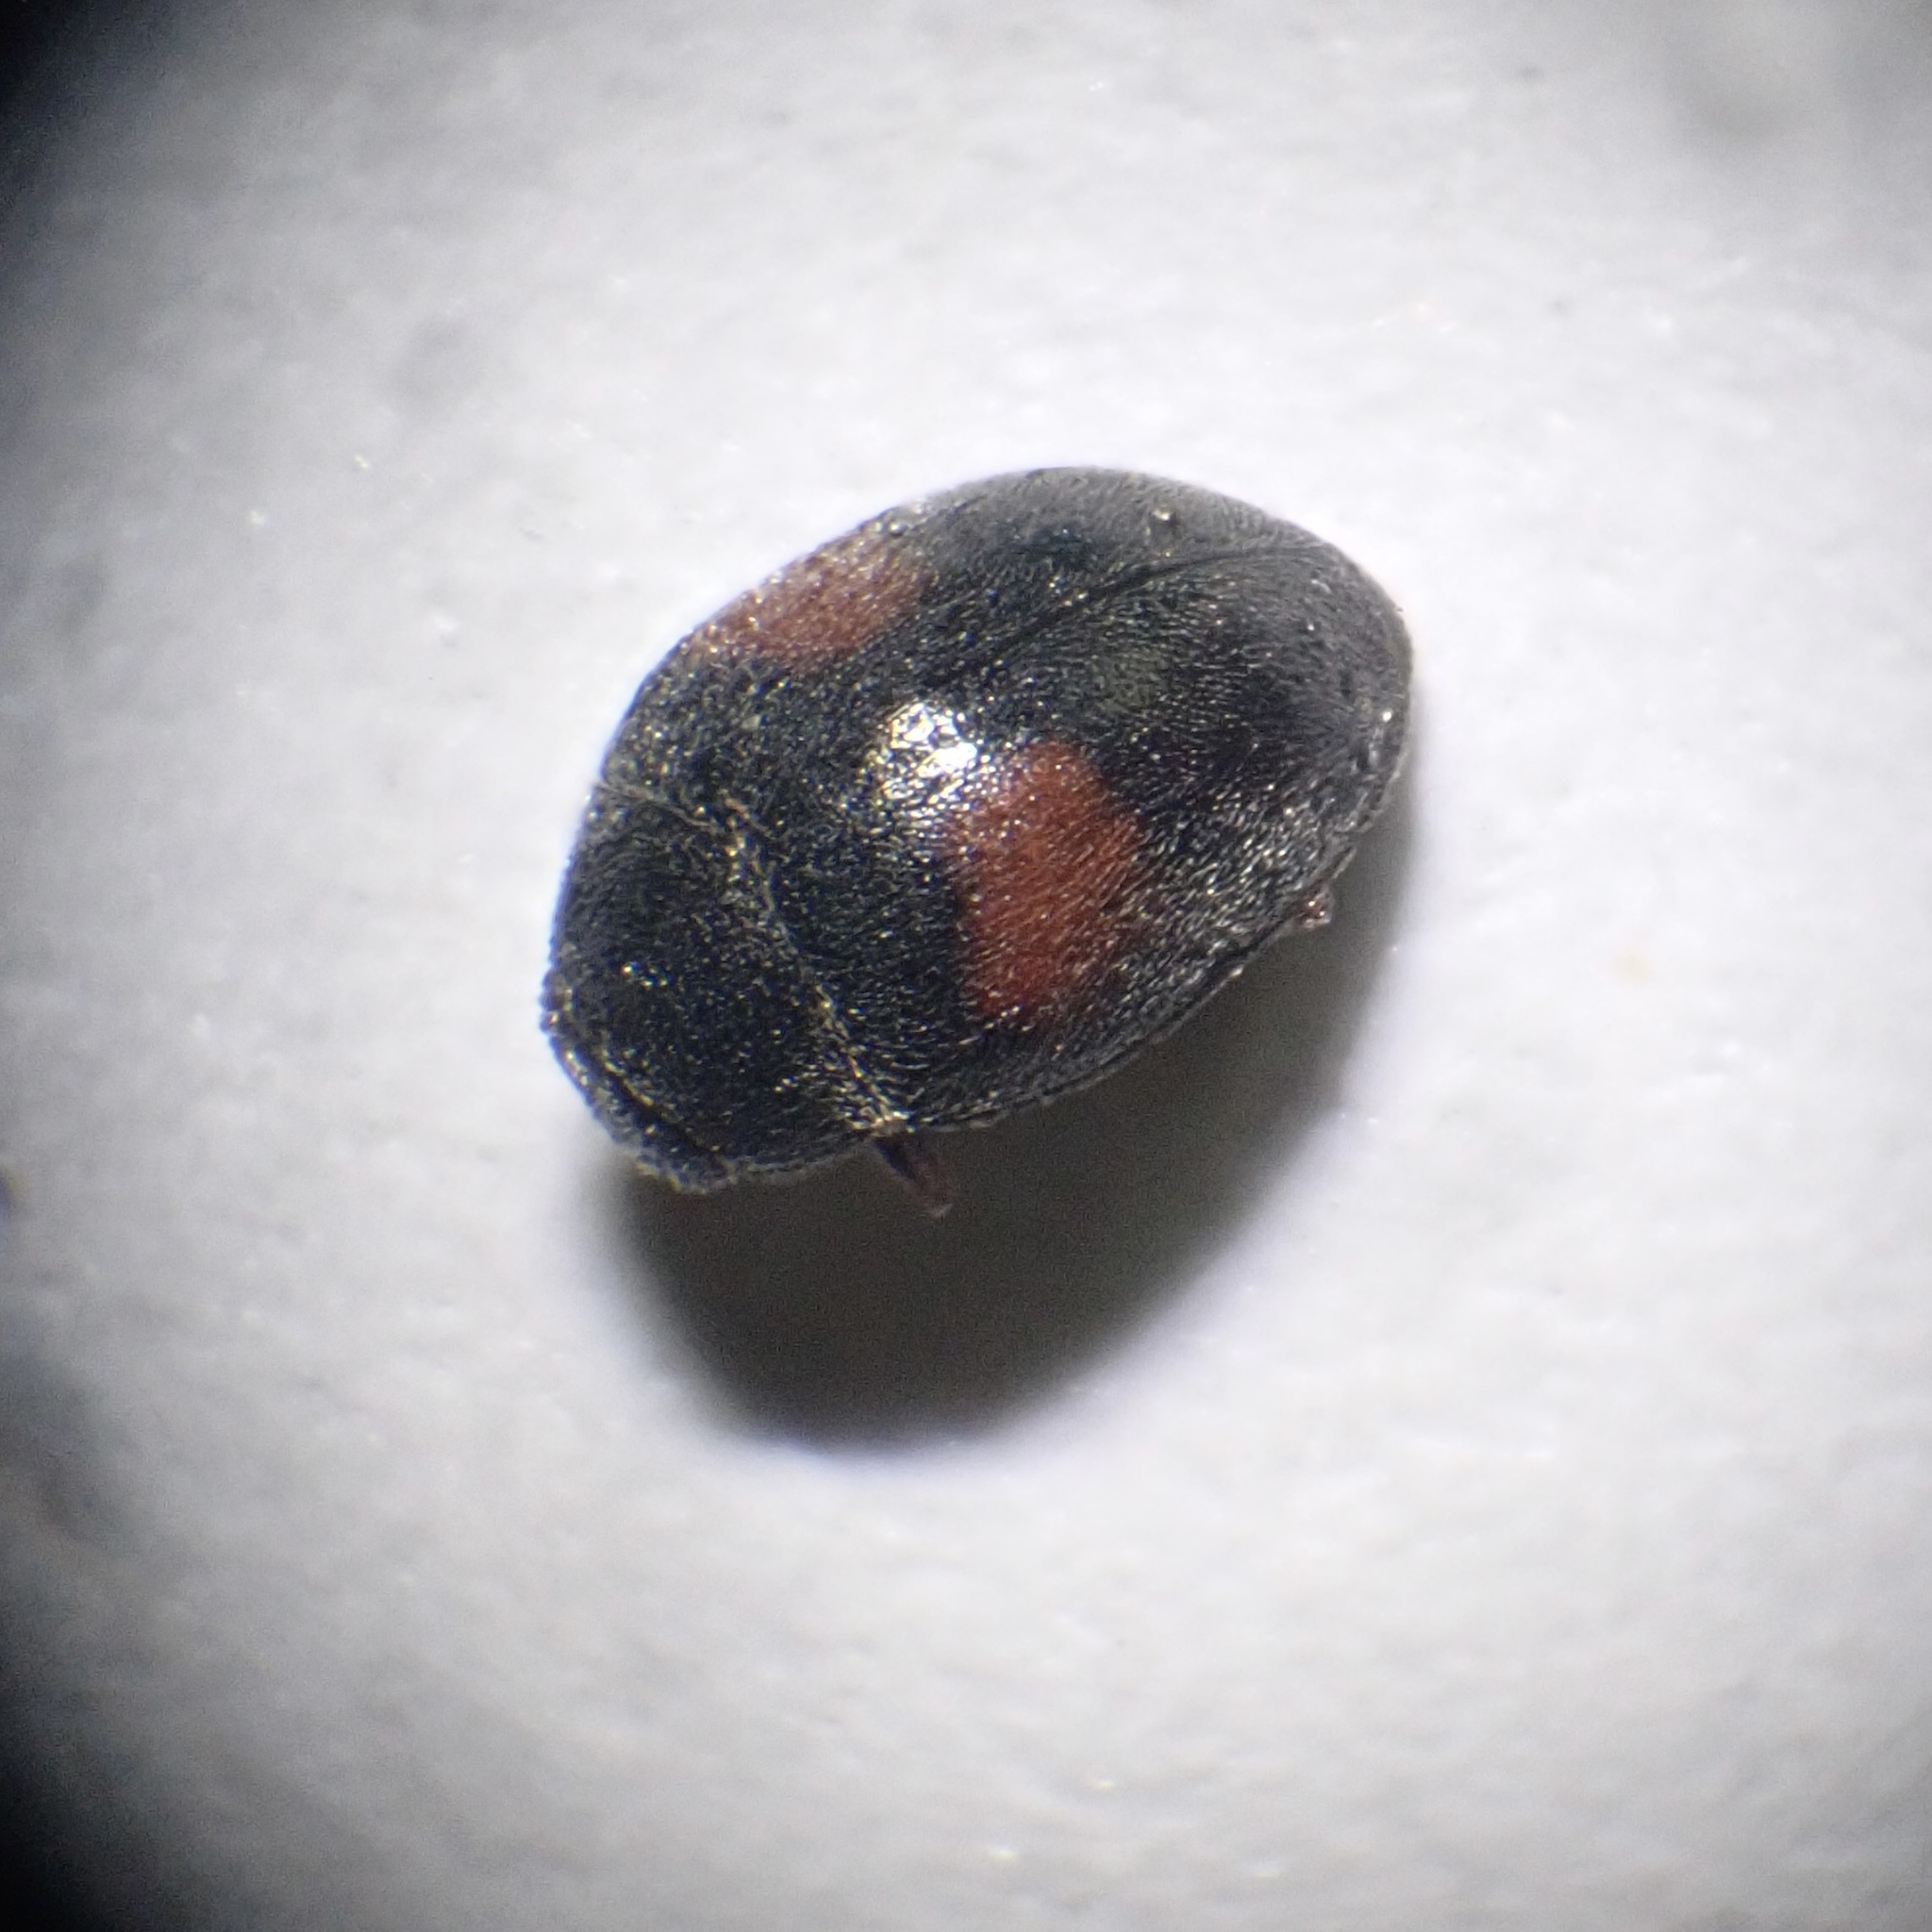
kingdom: Animalia
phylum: Arthropoda
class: Insecta
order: Coleoptera
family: Coccinellidae
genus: Scymnus
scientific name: Scymnus schmidti
